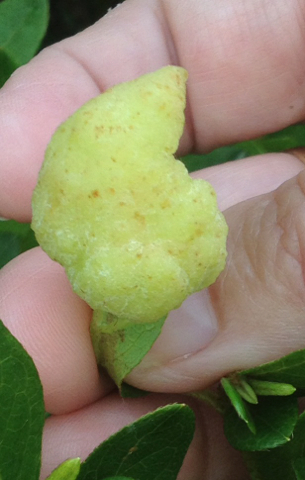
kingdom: Fungi
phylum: Basidiomycota
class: Exobasidiomycetes
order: Exobasidiales
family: Exobasidiaceae
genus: Exobasidium
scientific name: Exobasidium vaccinii
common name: Cowberry redleaf
